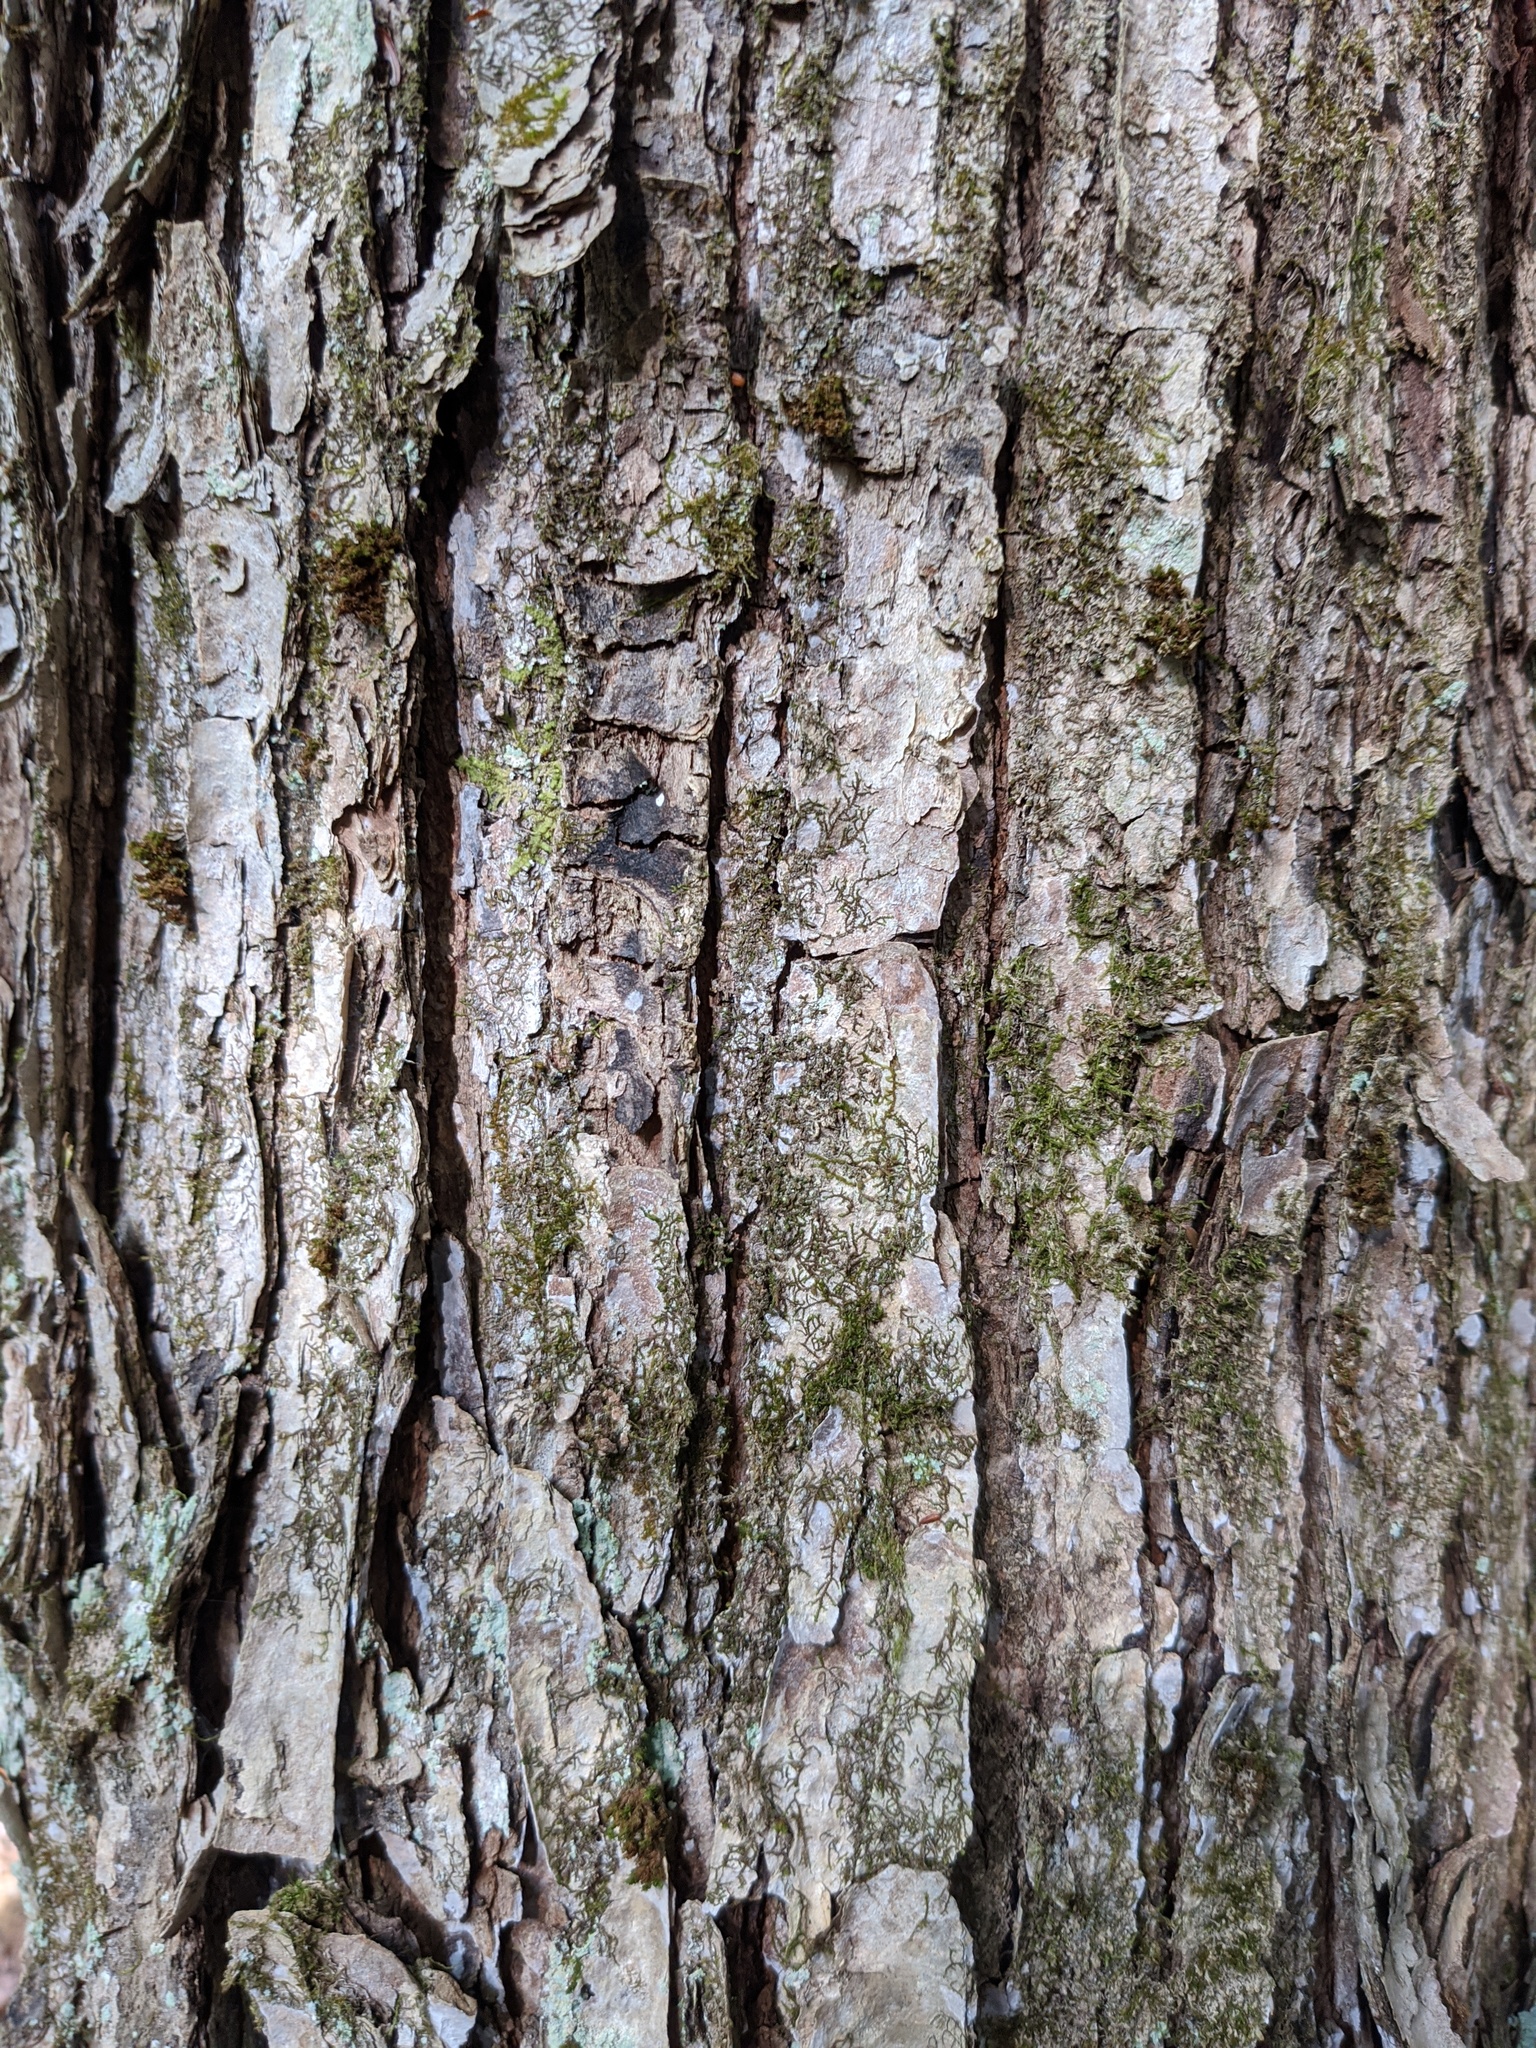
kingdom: Plantae
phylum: Tracheophyta
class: Magnoliopsida
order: Sapindales
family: Sapindaceae
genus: Acer
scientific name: Acer rubrum
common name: Red maple
